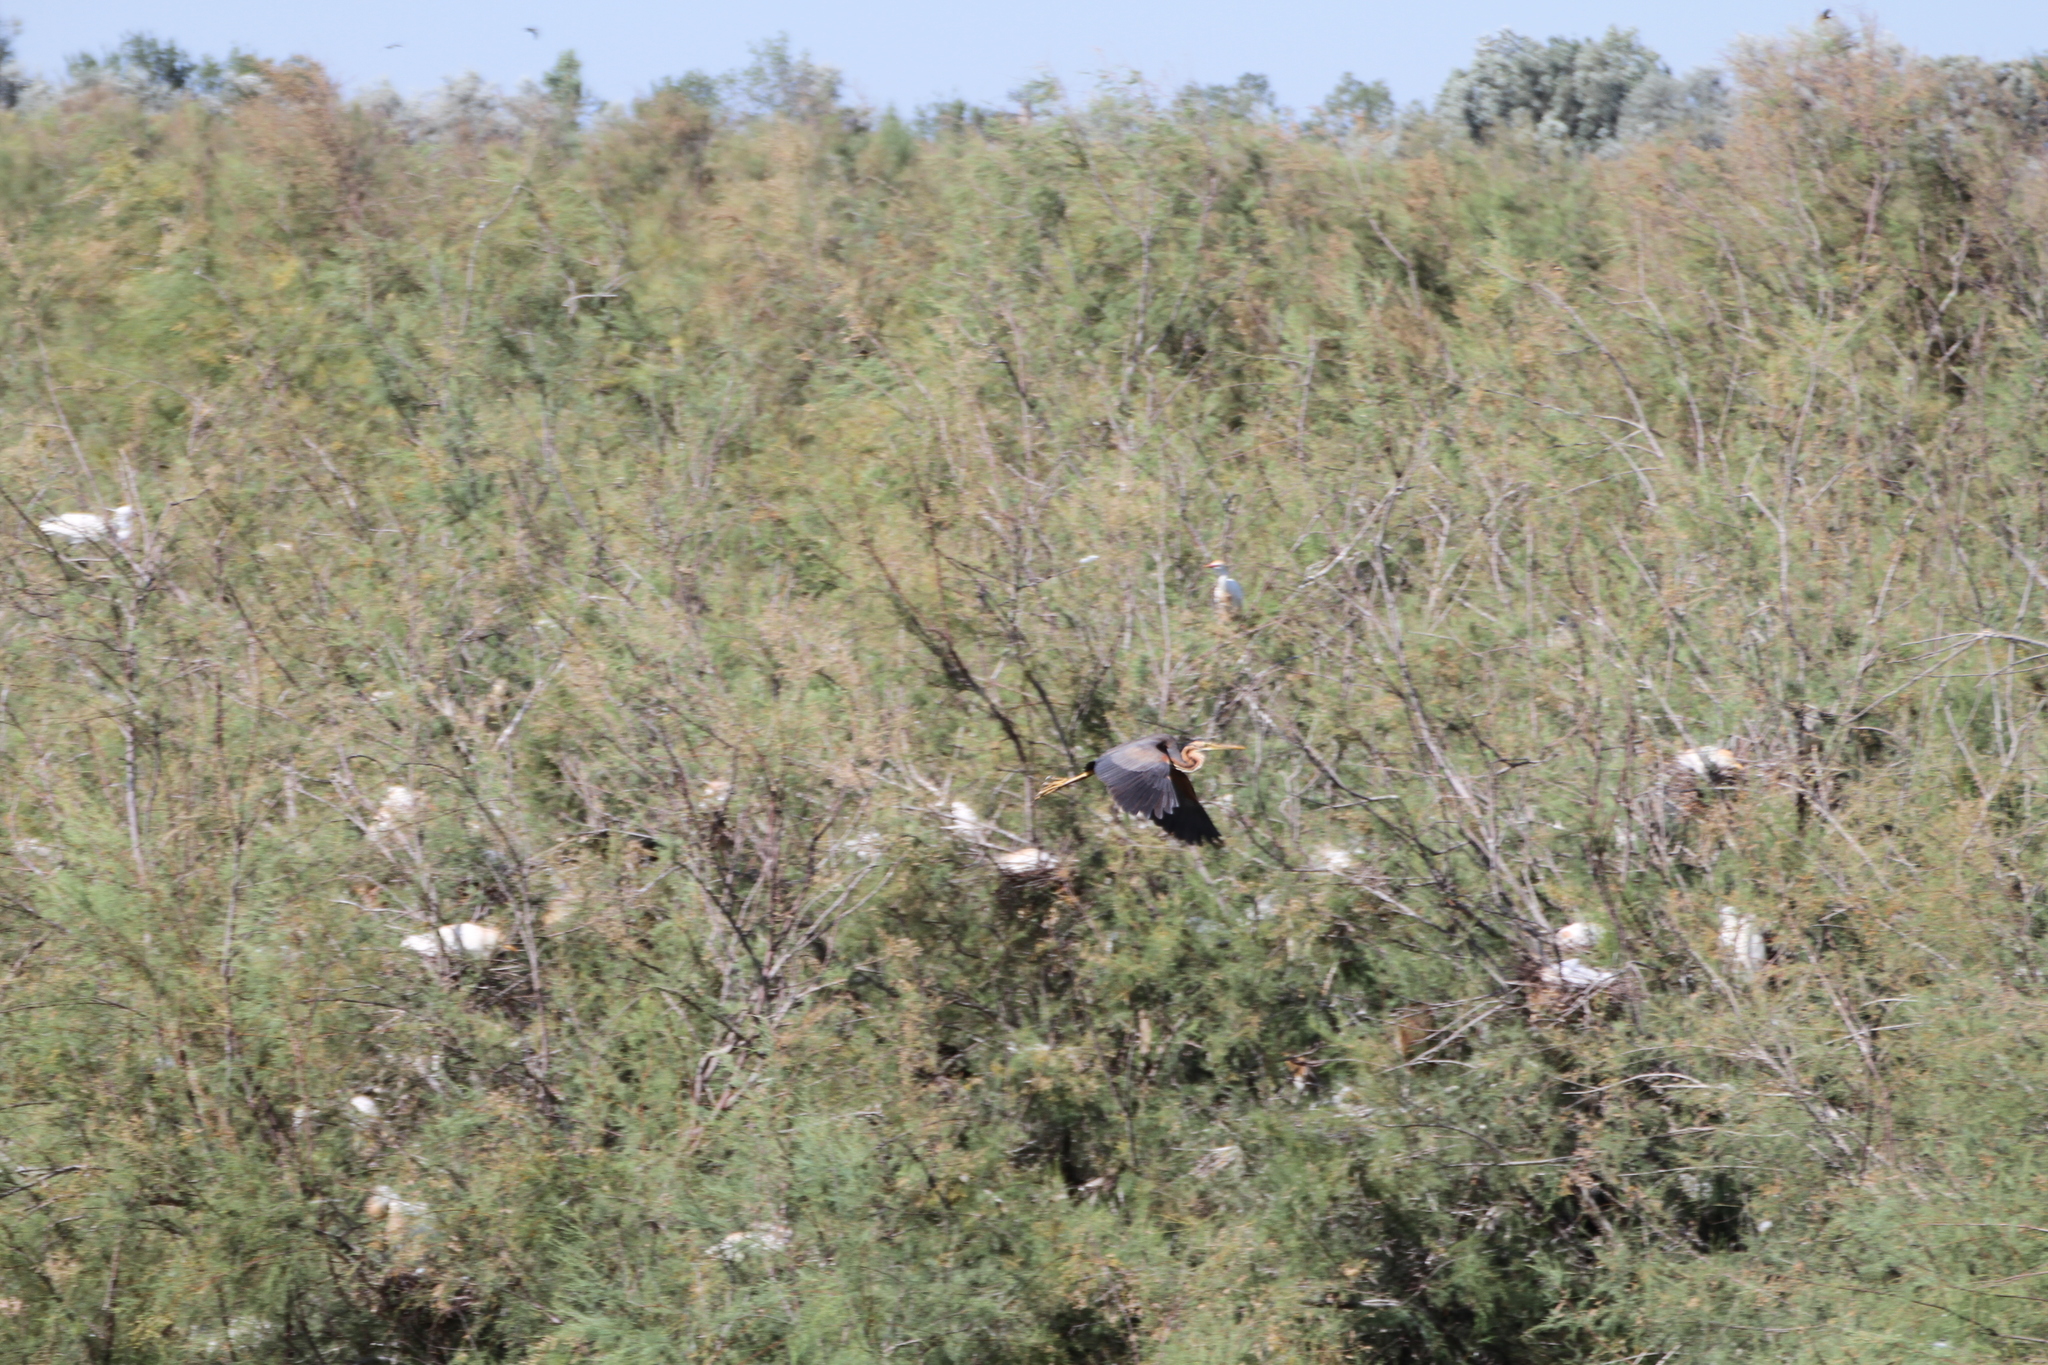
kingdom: Animalia
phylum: Chordata
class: Aves
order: Pelecaniformes
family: Ardeidae
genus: Ardea
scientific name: Ardea purpurea
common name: Purple heron
